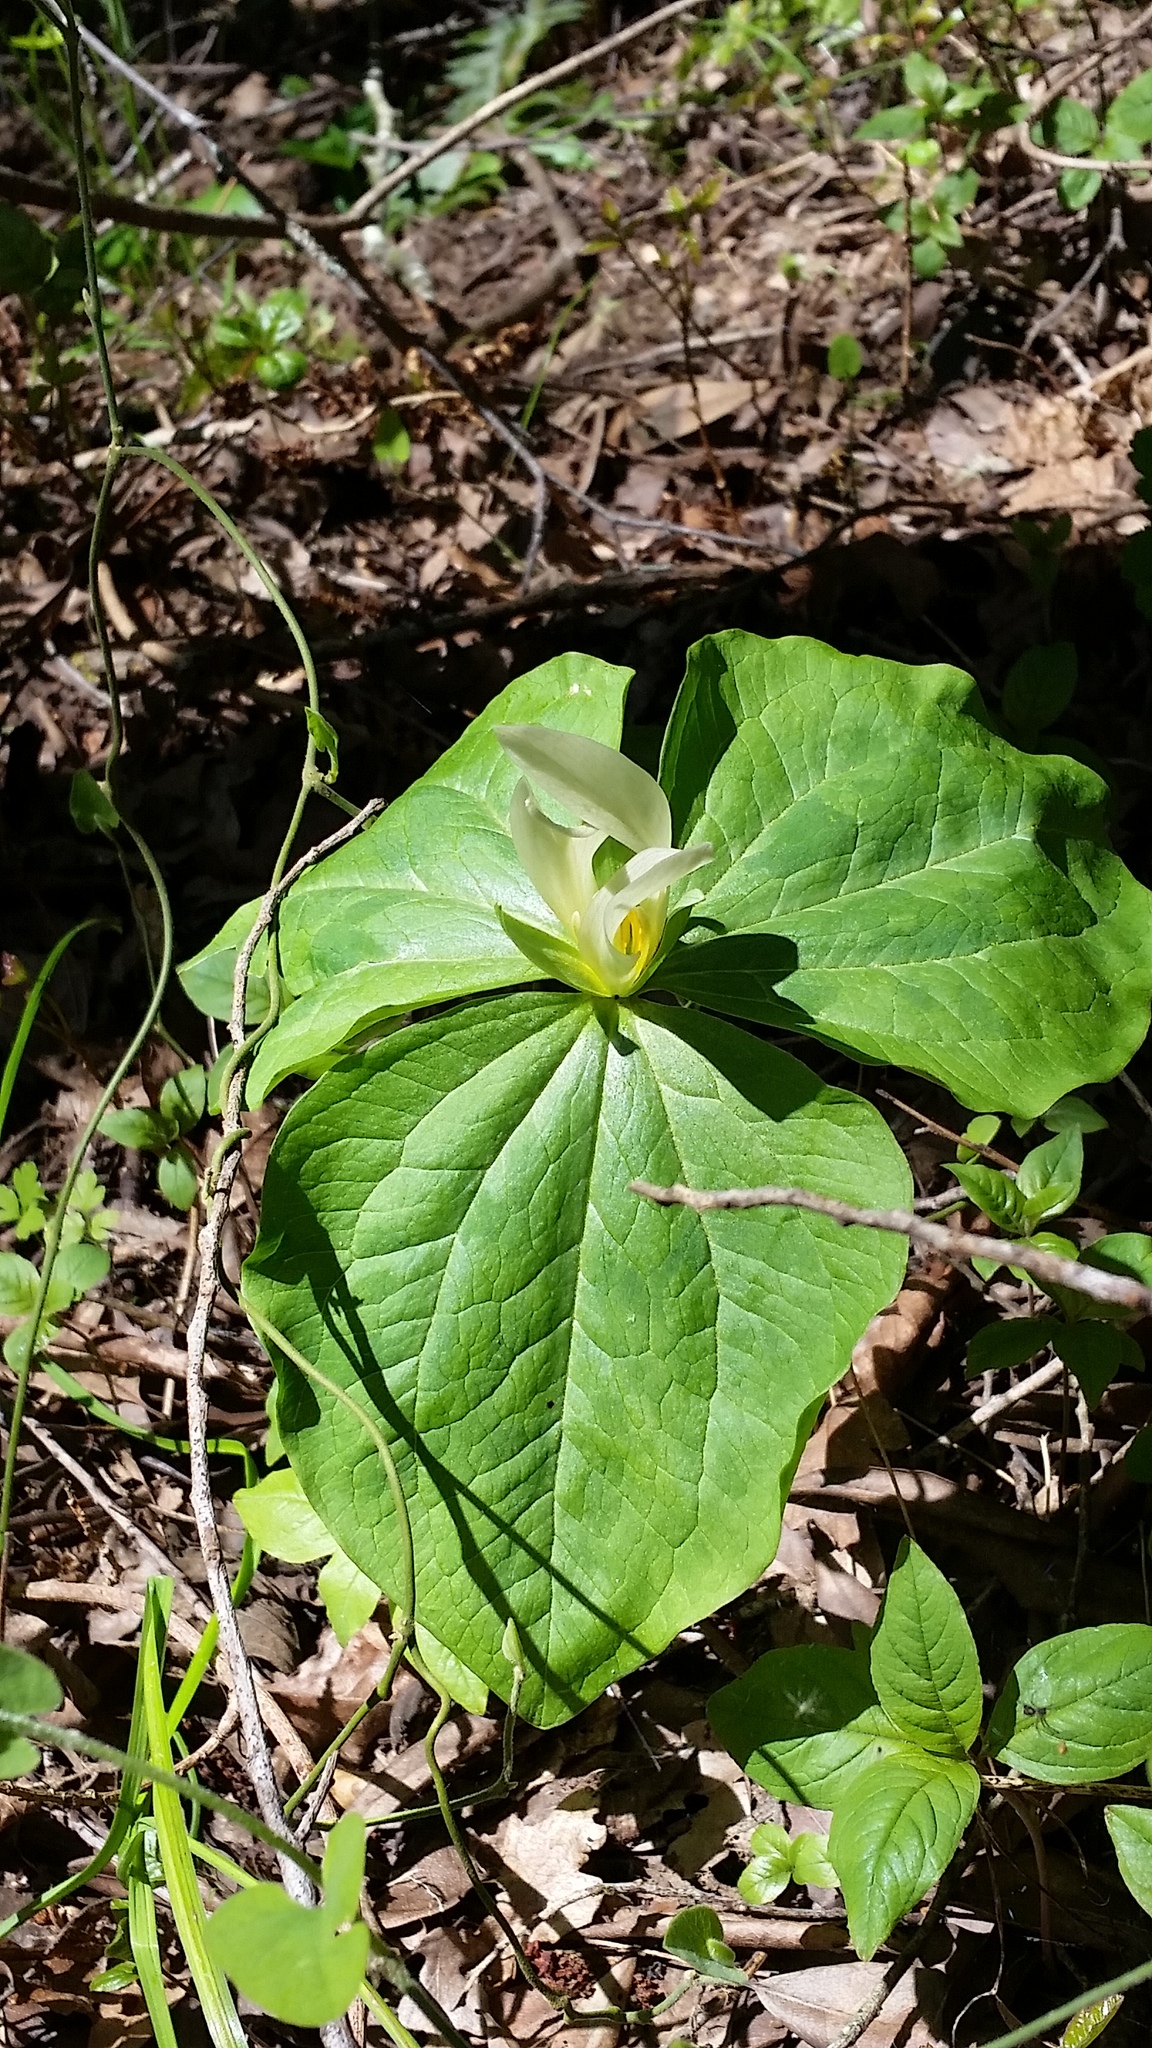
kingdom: Plantae
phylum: Tracheophyta
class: Liliopsida
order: Liliales
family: Melanthiaceae
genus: Trillium
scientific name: Trillium albidum
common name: Freeman's trillium
